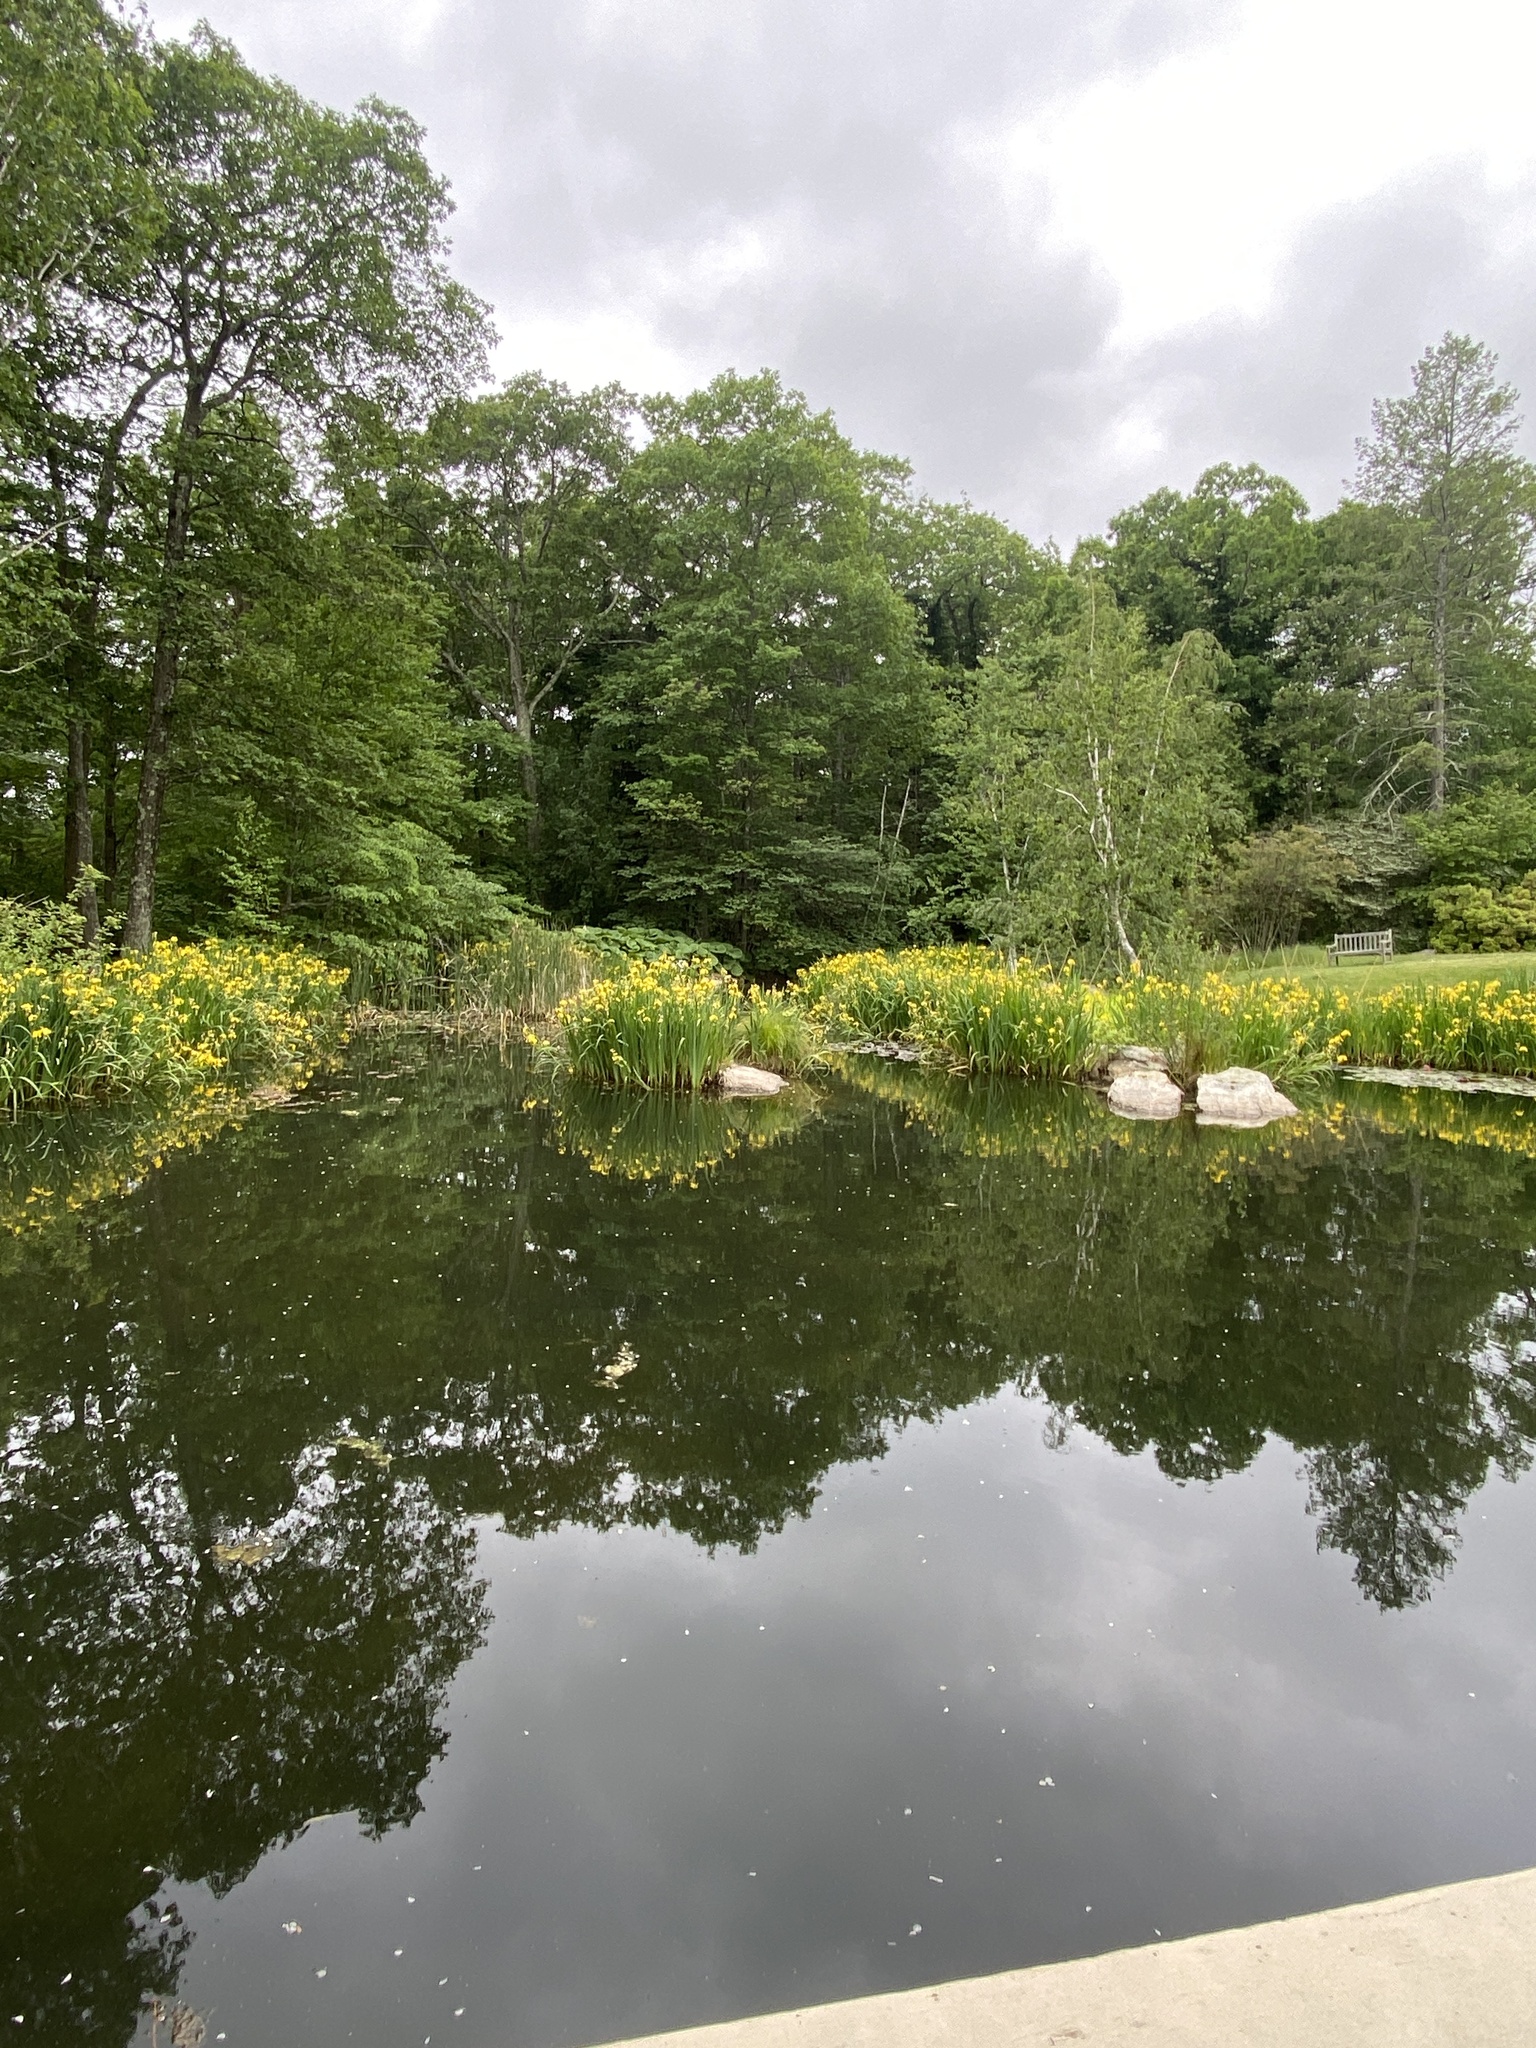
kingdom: Plantae
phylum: Tracheophyta
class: Liliopsida
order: Asparagales
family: Iridaceae
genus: Iris
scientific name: Iris pseudacorus
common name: Yellow flag
